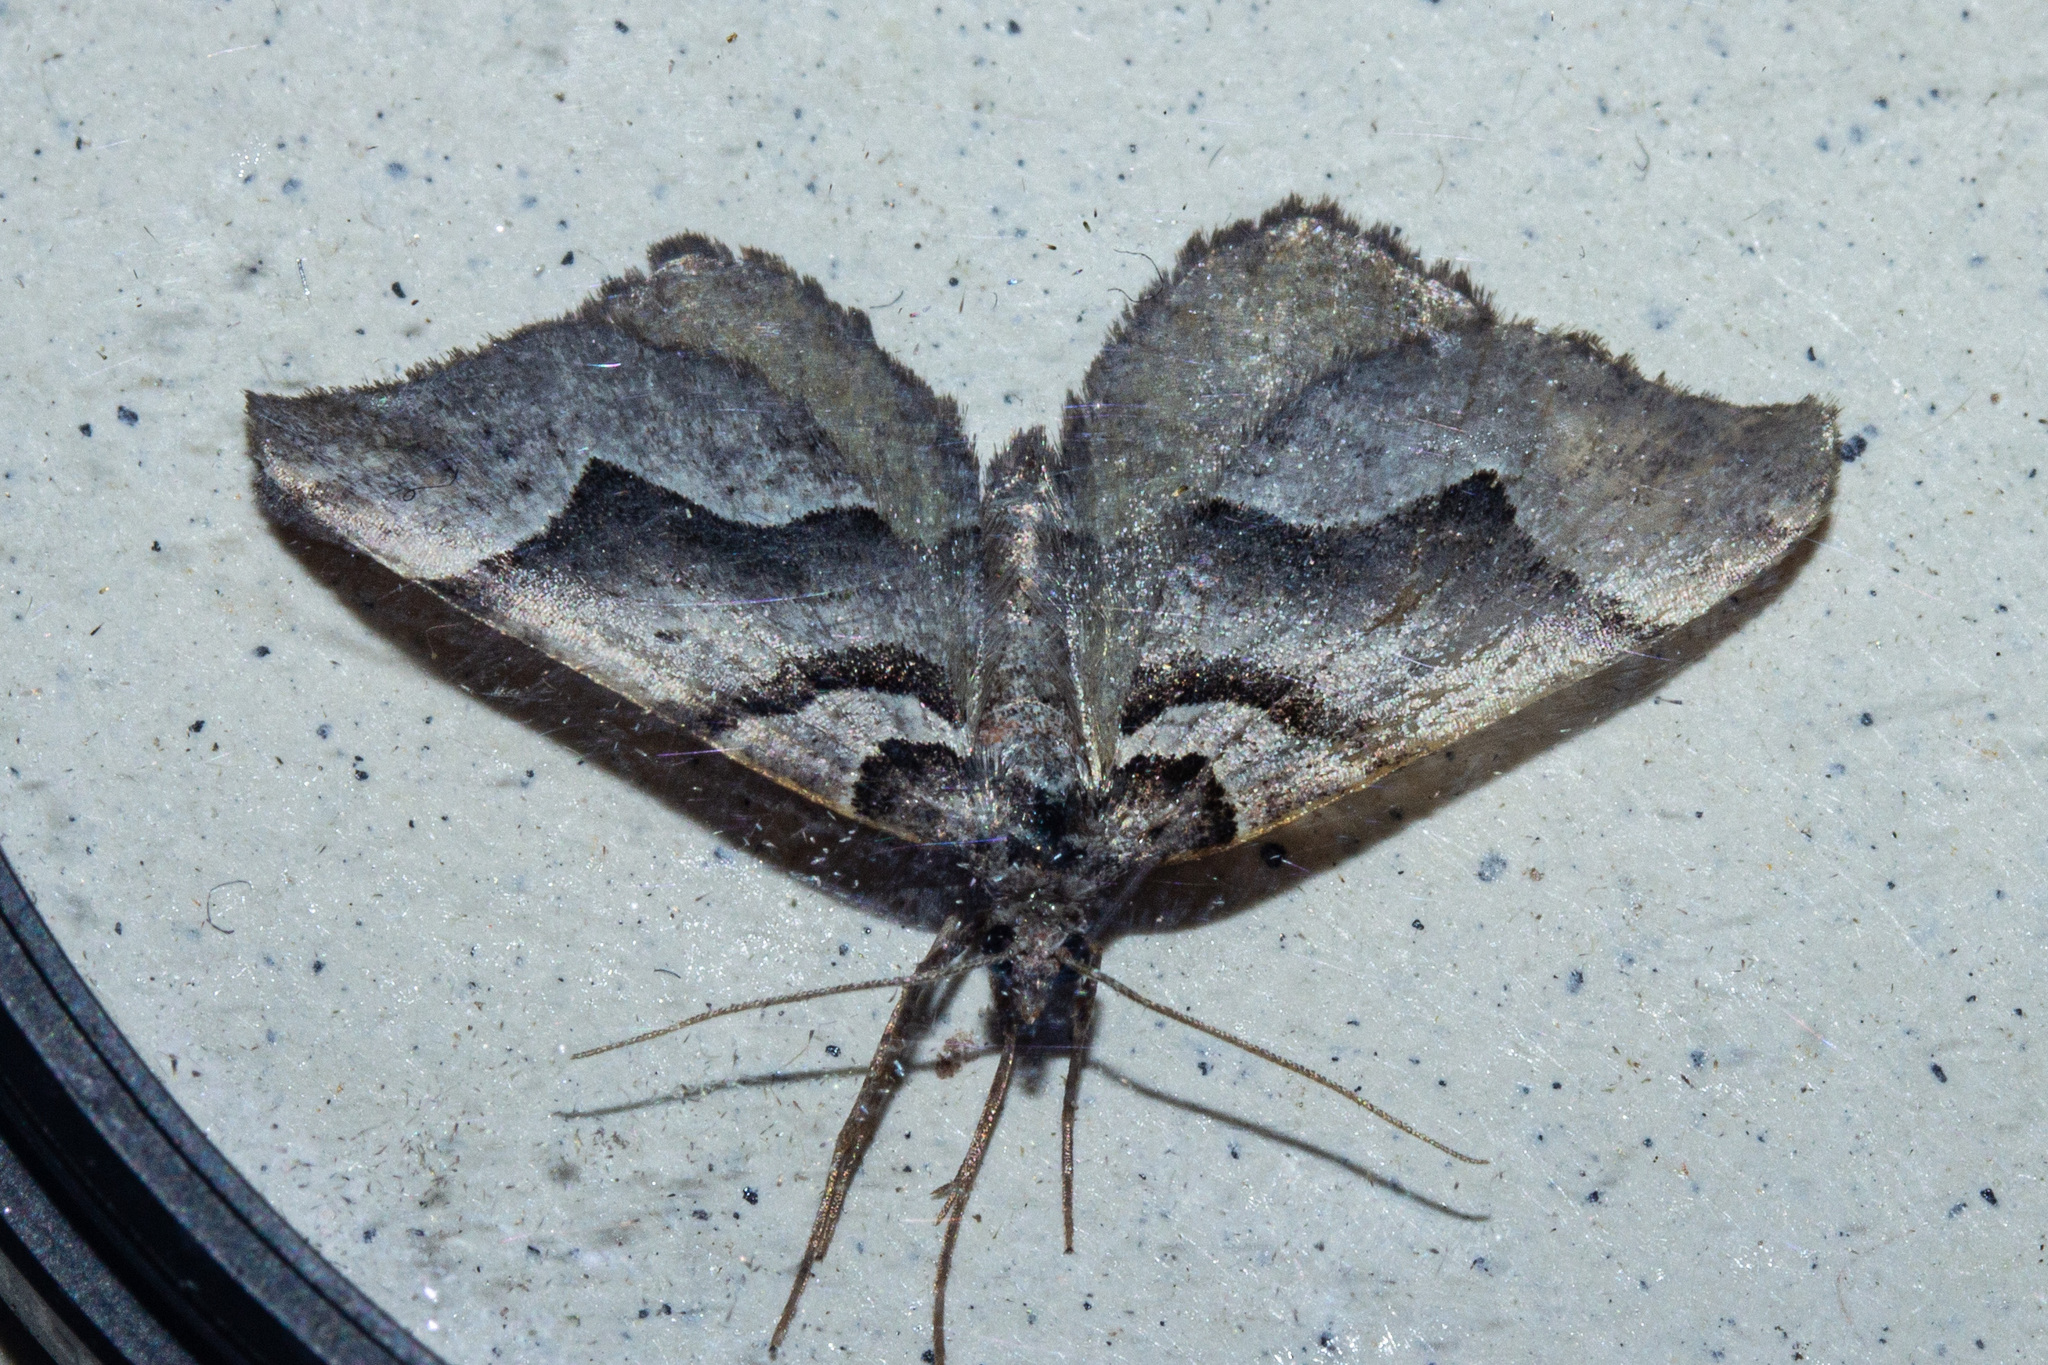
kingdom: Animalia
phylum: Arthropoda
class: Insecta
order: Lepidoptera
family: Geometridae
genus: Helastia
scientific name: Helastia triphragma
